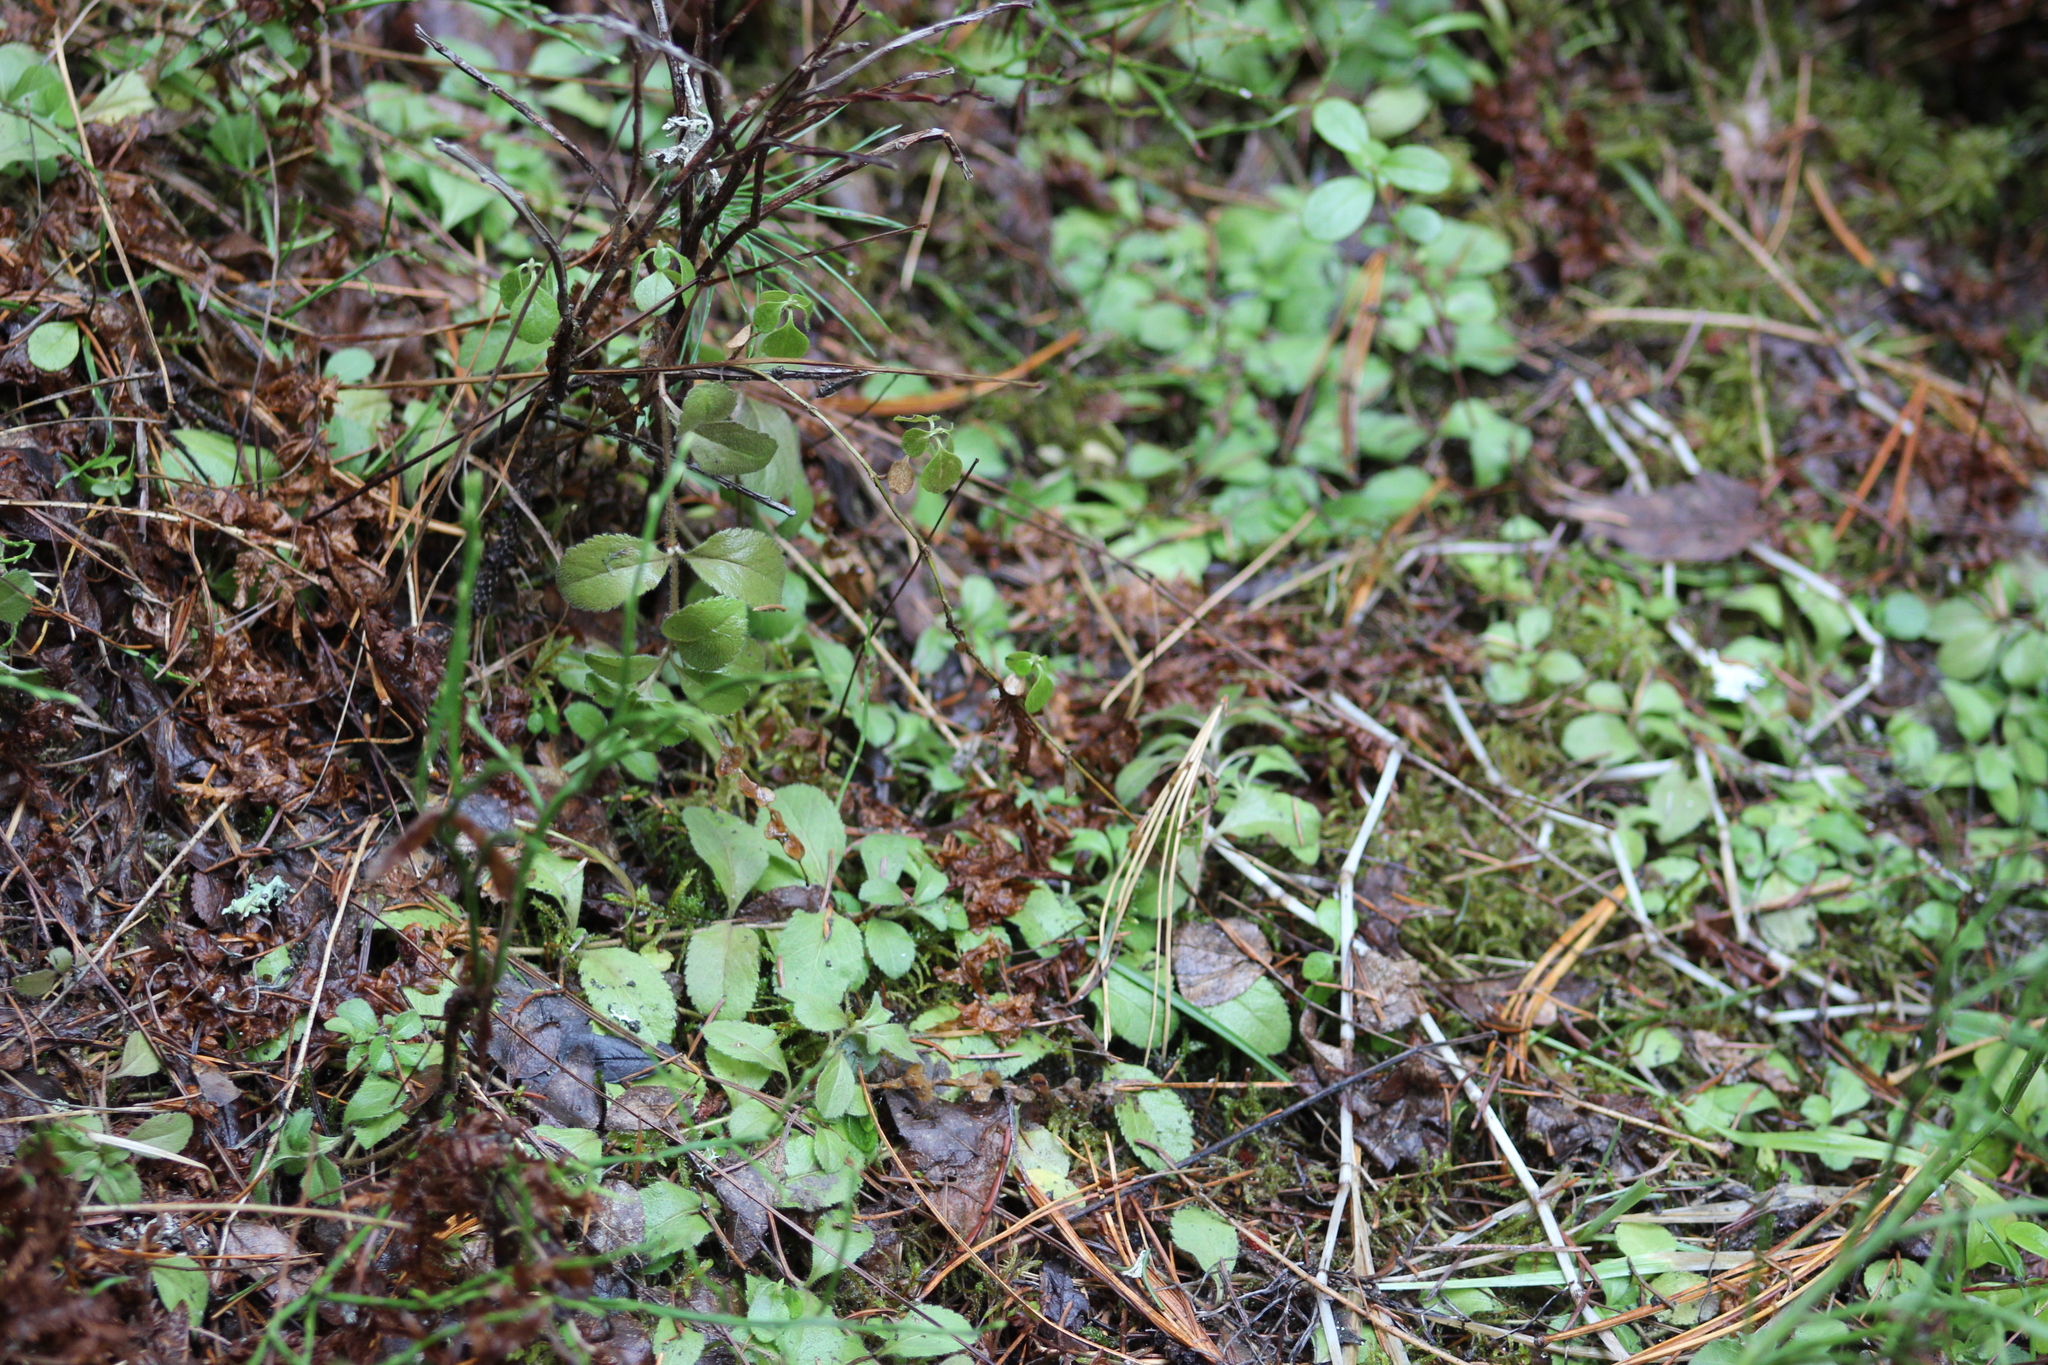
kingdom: Plantae
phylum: Tracheophyta
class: Magnoliopsida
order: Lamiales
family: Plantaginaceae
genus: Veronica
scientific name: Veronica officinalis
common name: Common speedwell
